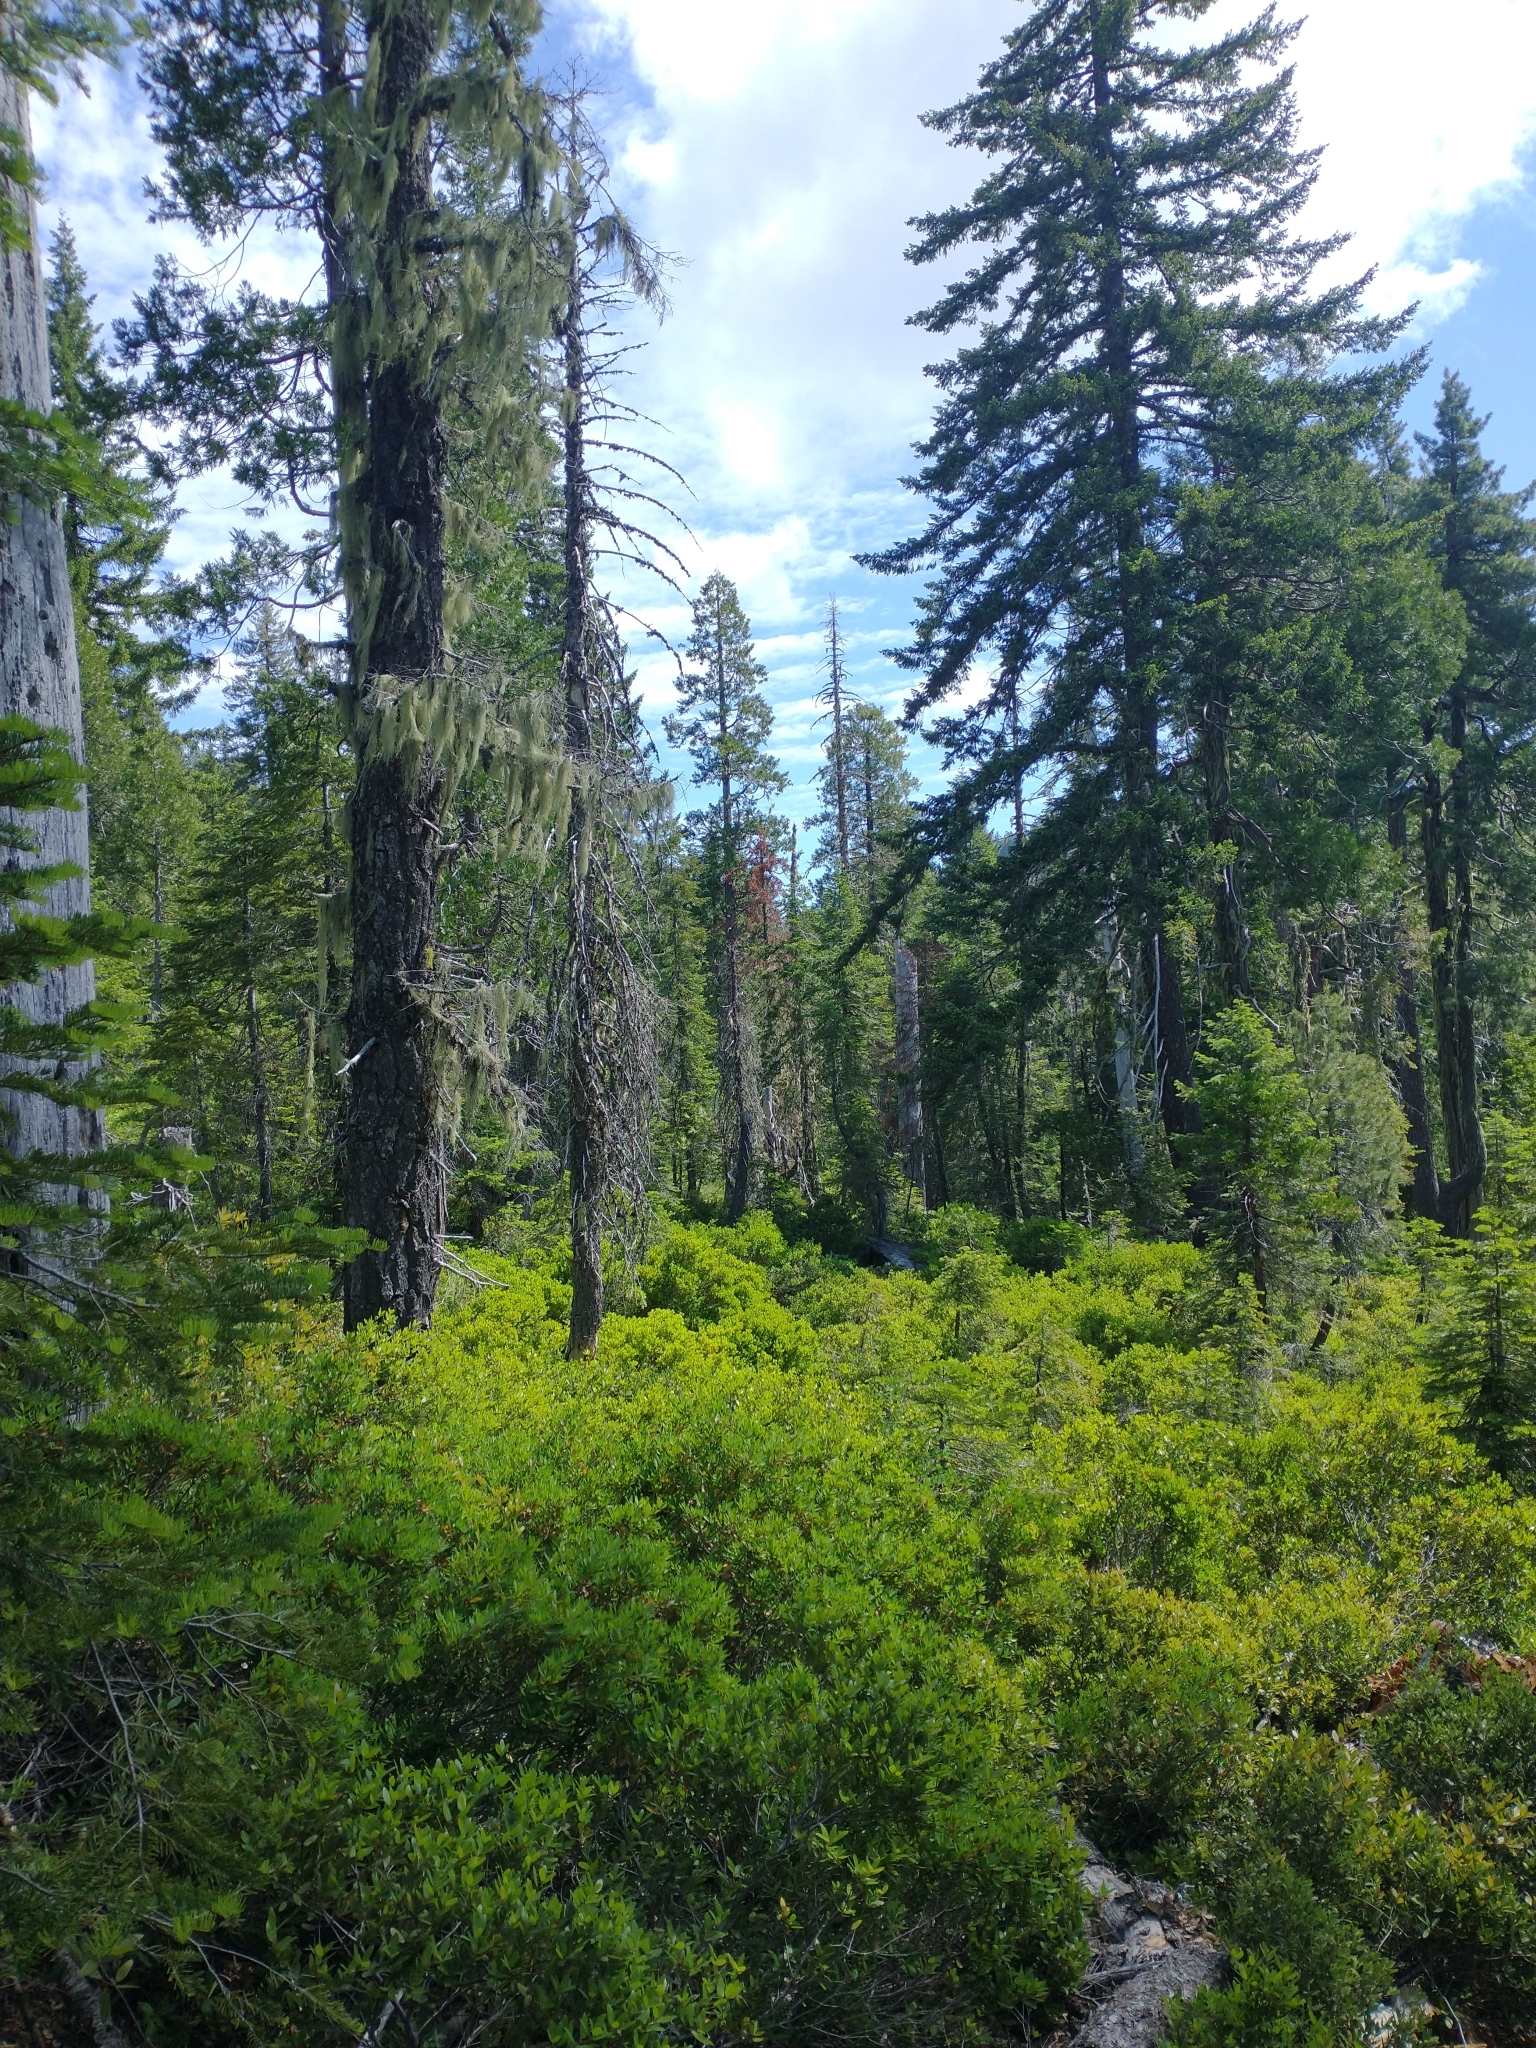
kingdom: Plantae
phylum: Tracheophyta
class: Pinopsida
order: Pinales
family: Pinaceae
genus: Pseudotsuga
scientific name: Pseudotsuga menziesii
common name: Douglas fir
